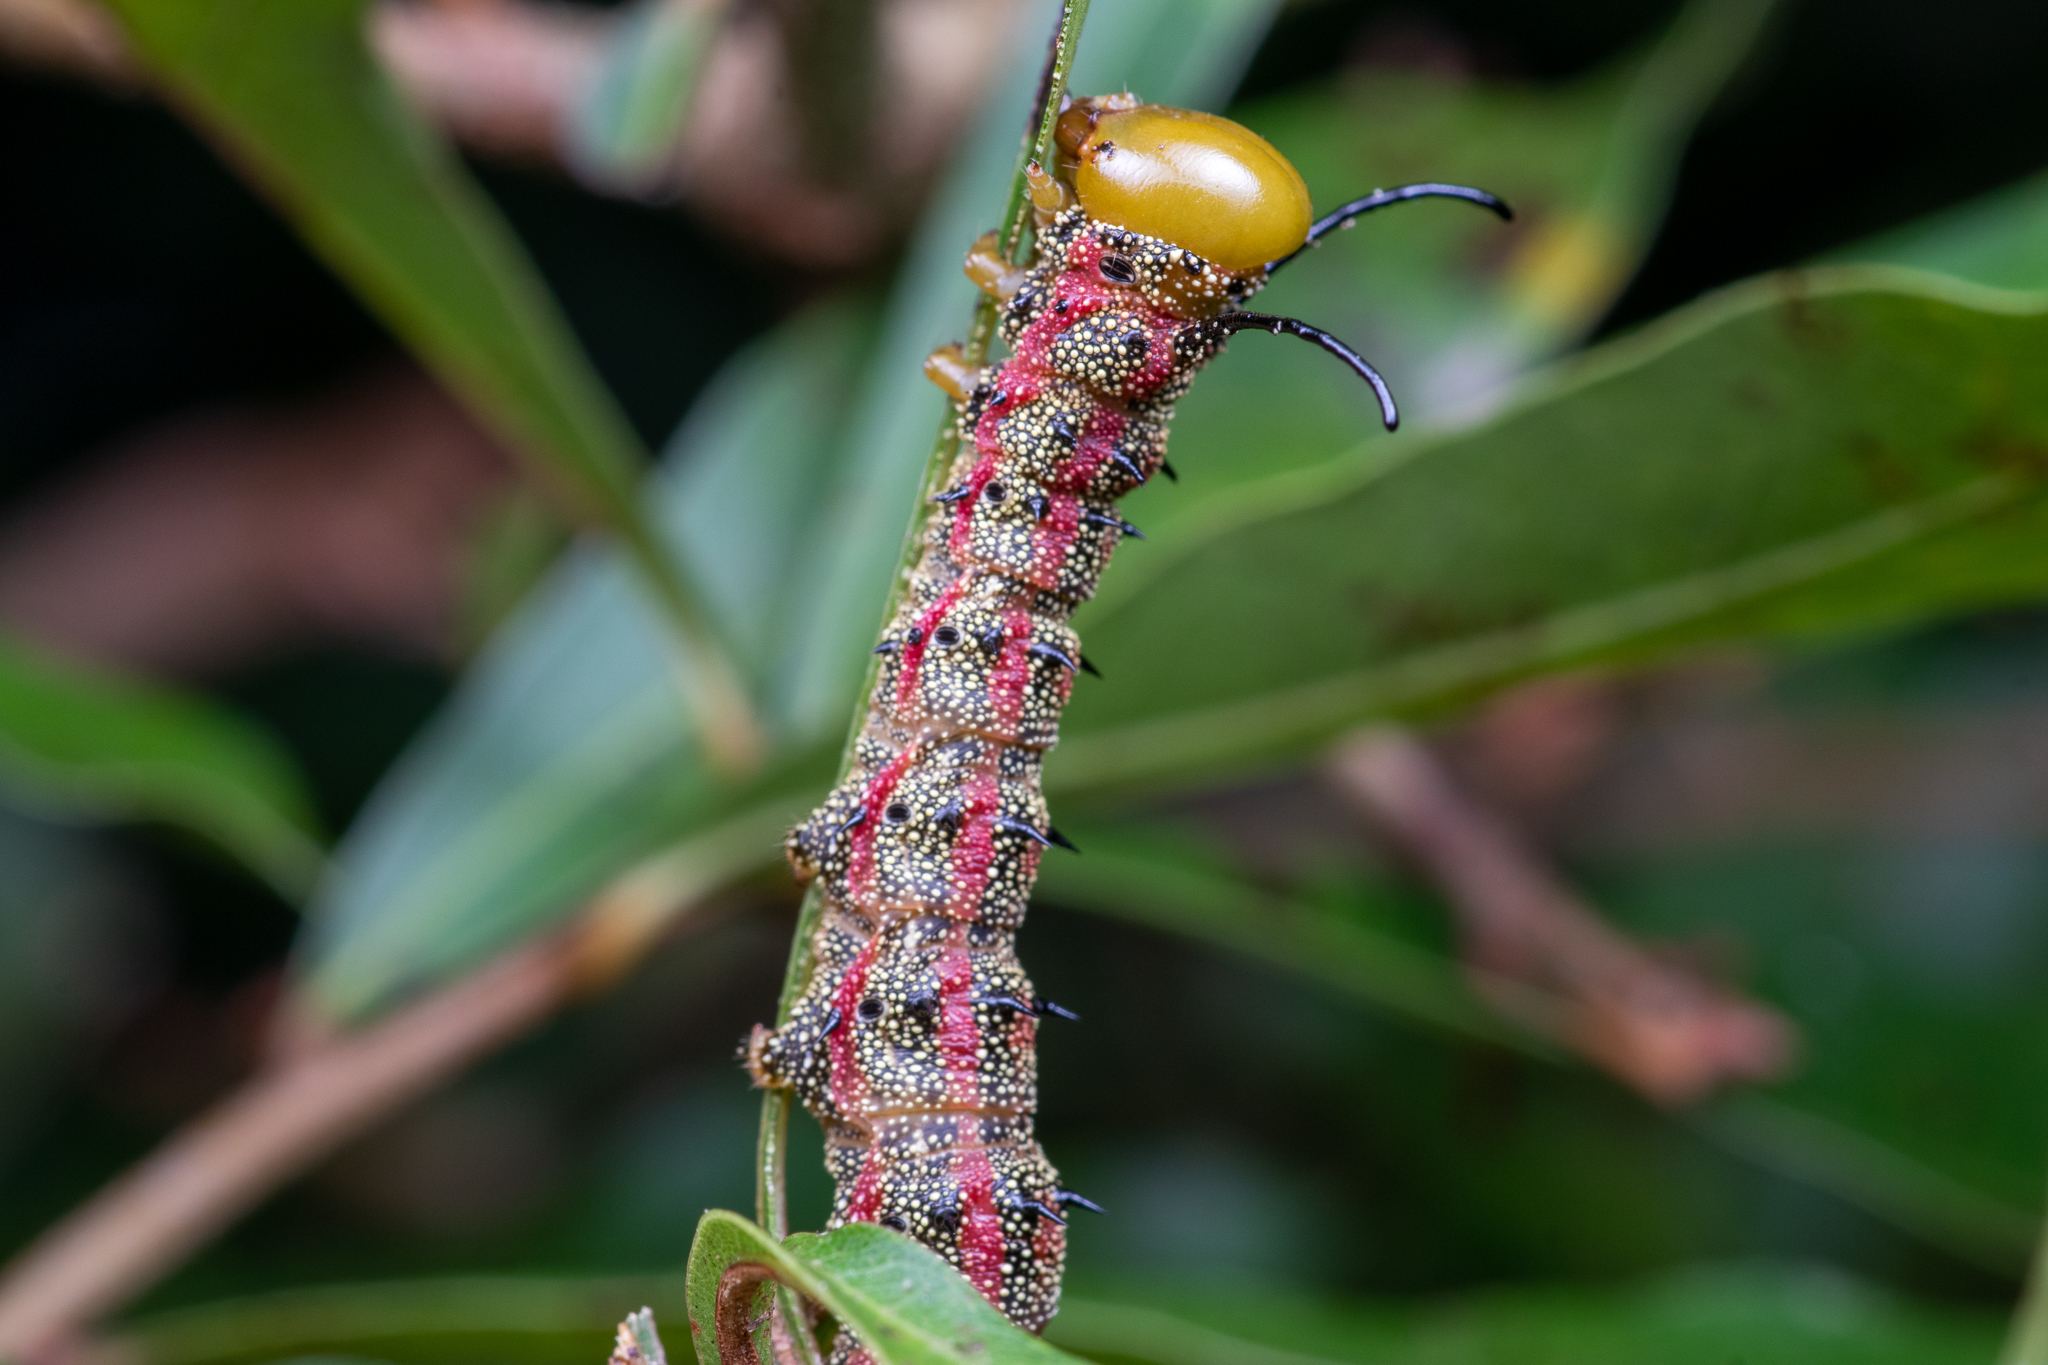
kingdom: Animalia
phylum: Arthropoda
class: Insecta
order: Lepidoptera
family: Saturniidae
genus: Anisota
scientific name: Anisota virginiensis
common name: Pink striped oakworm moth
